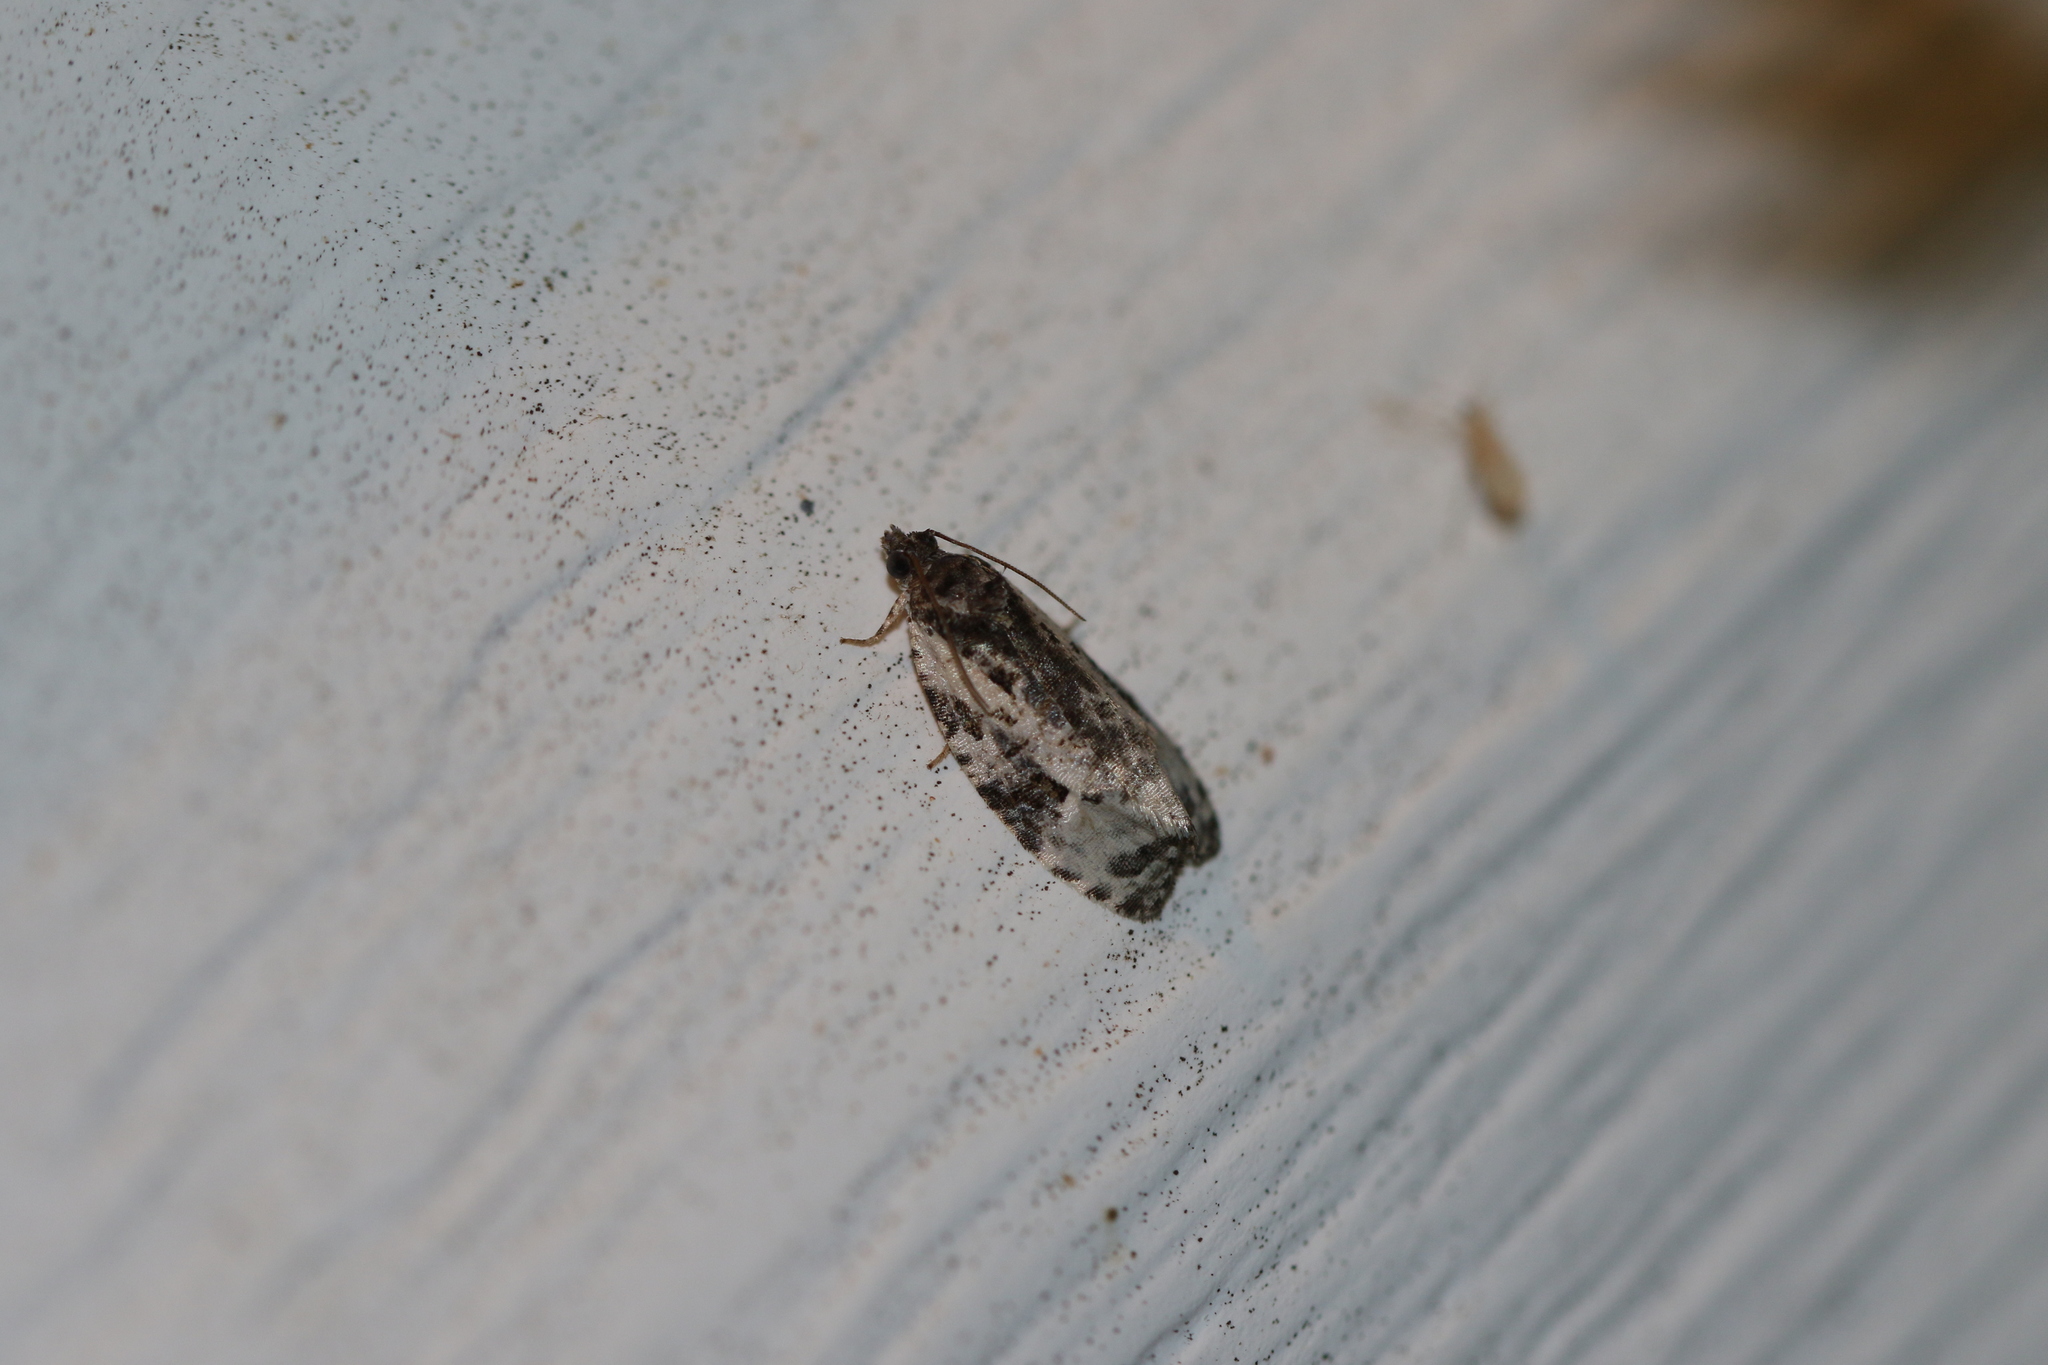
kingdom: Animalia
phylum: Arthropoda
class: Insecta
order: Lepidoptera
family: Tortricidae
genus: Apotomis
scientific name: Apotomis albeolana
